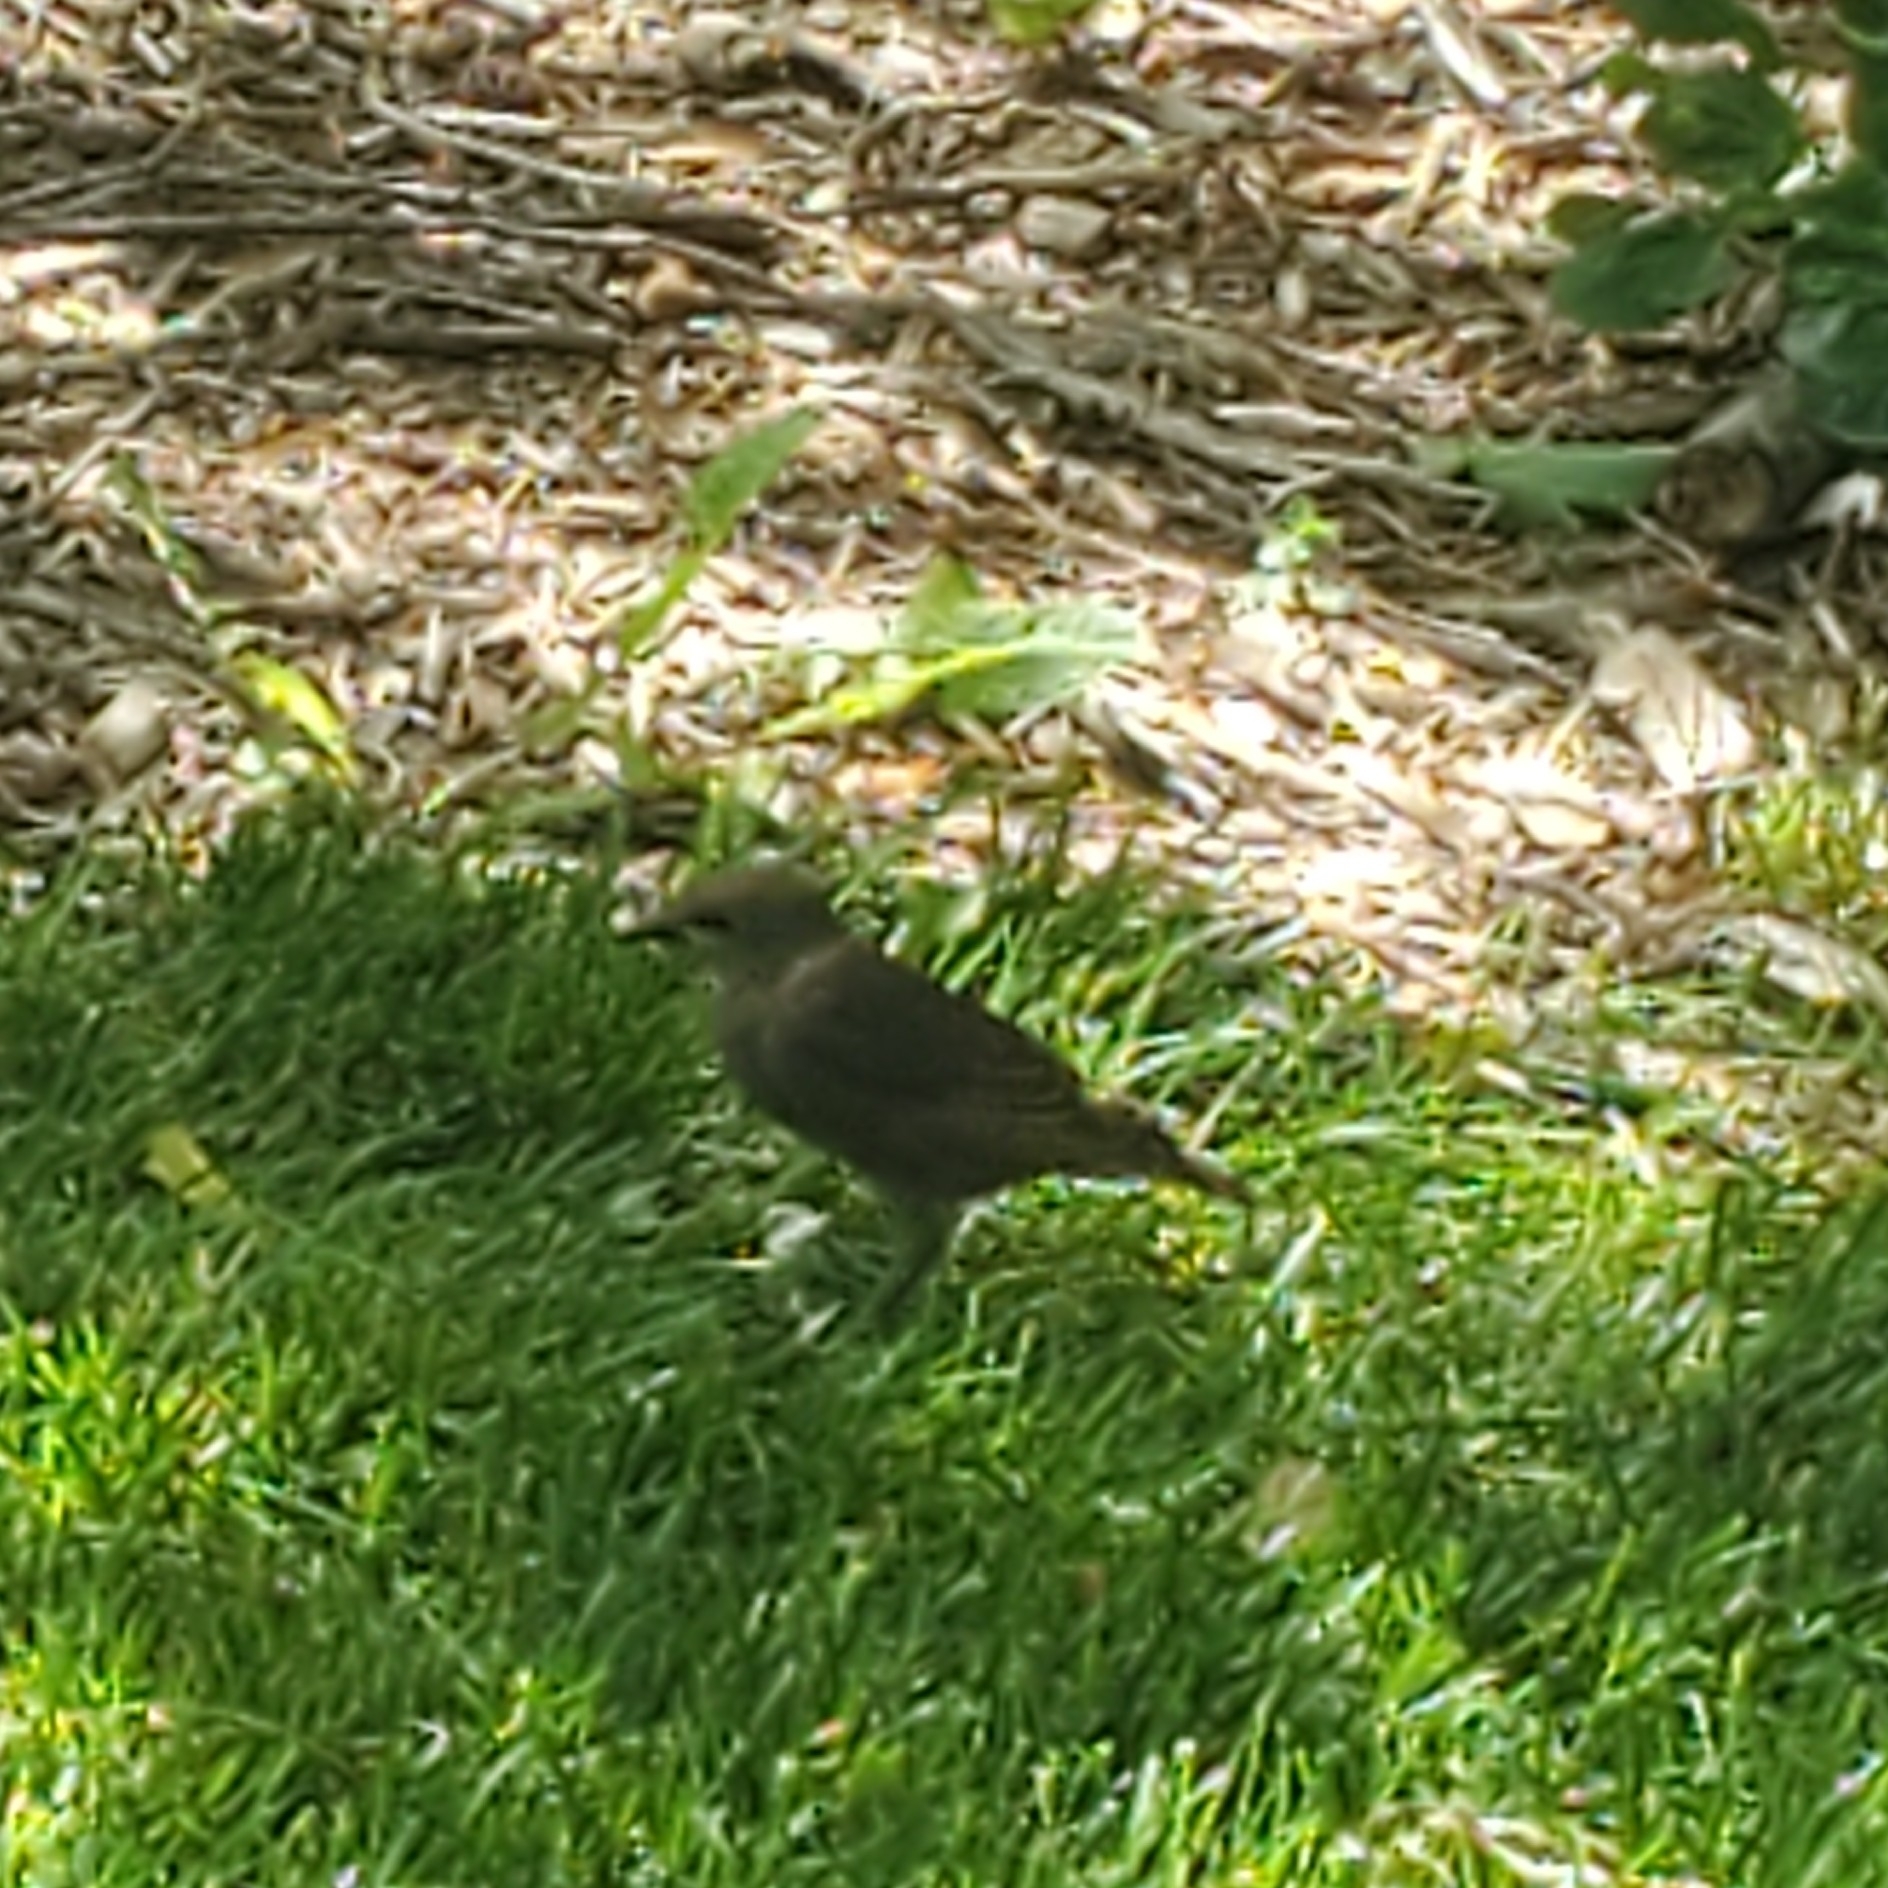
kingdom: Animalia
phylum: Chordata
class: Aves
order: Passeriformes
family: Sturnidae
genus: Sturnus
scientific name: Sturnus vulgaris
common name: Common starling
